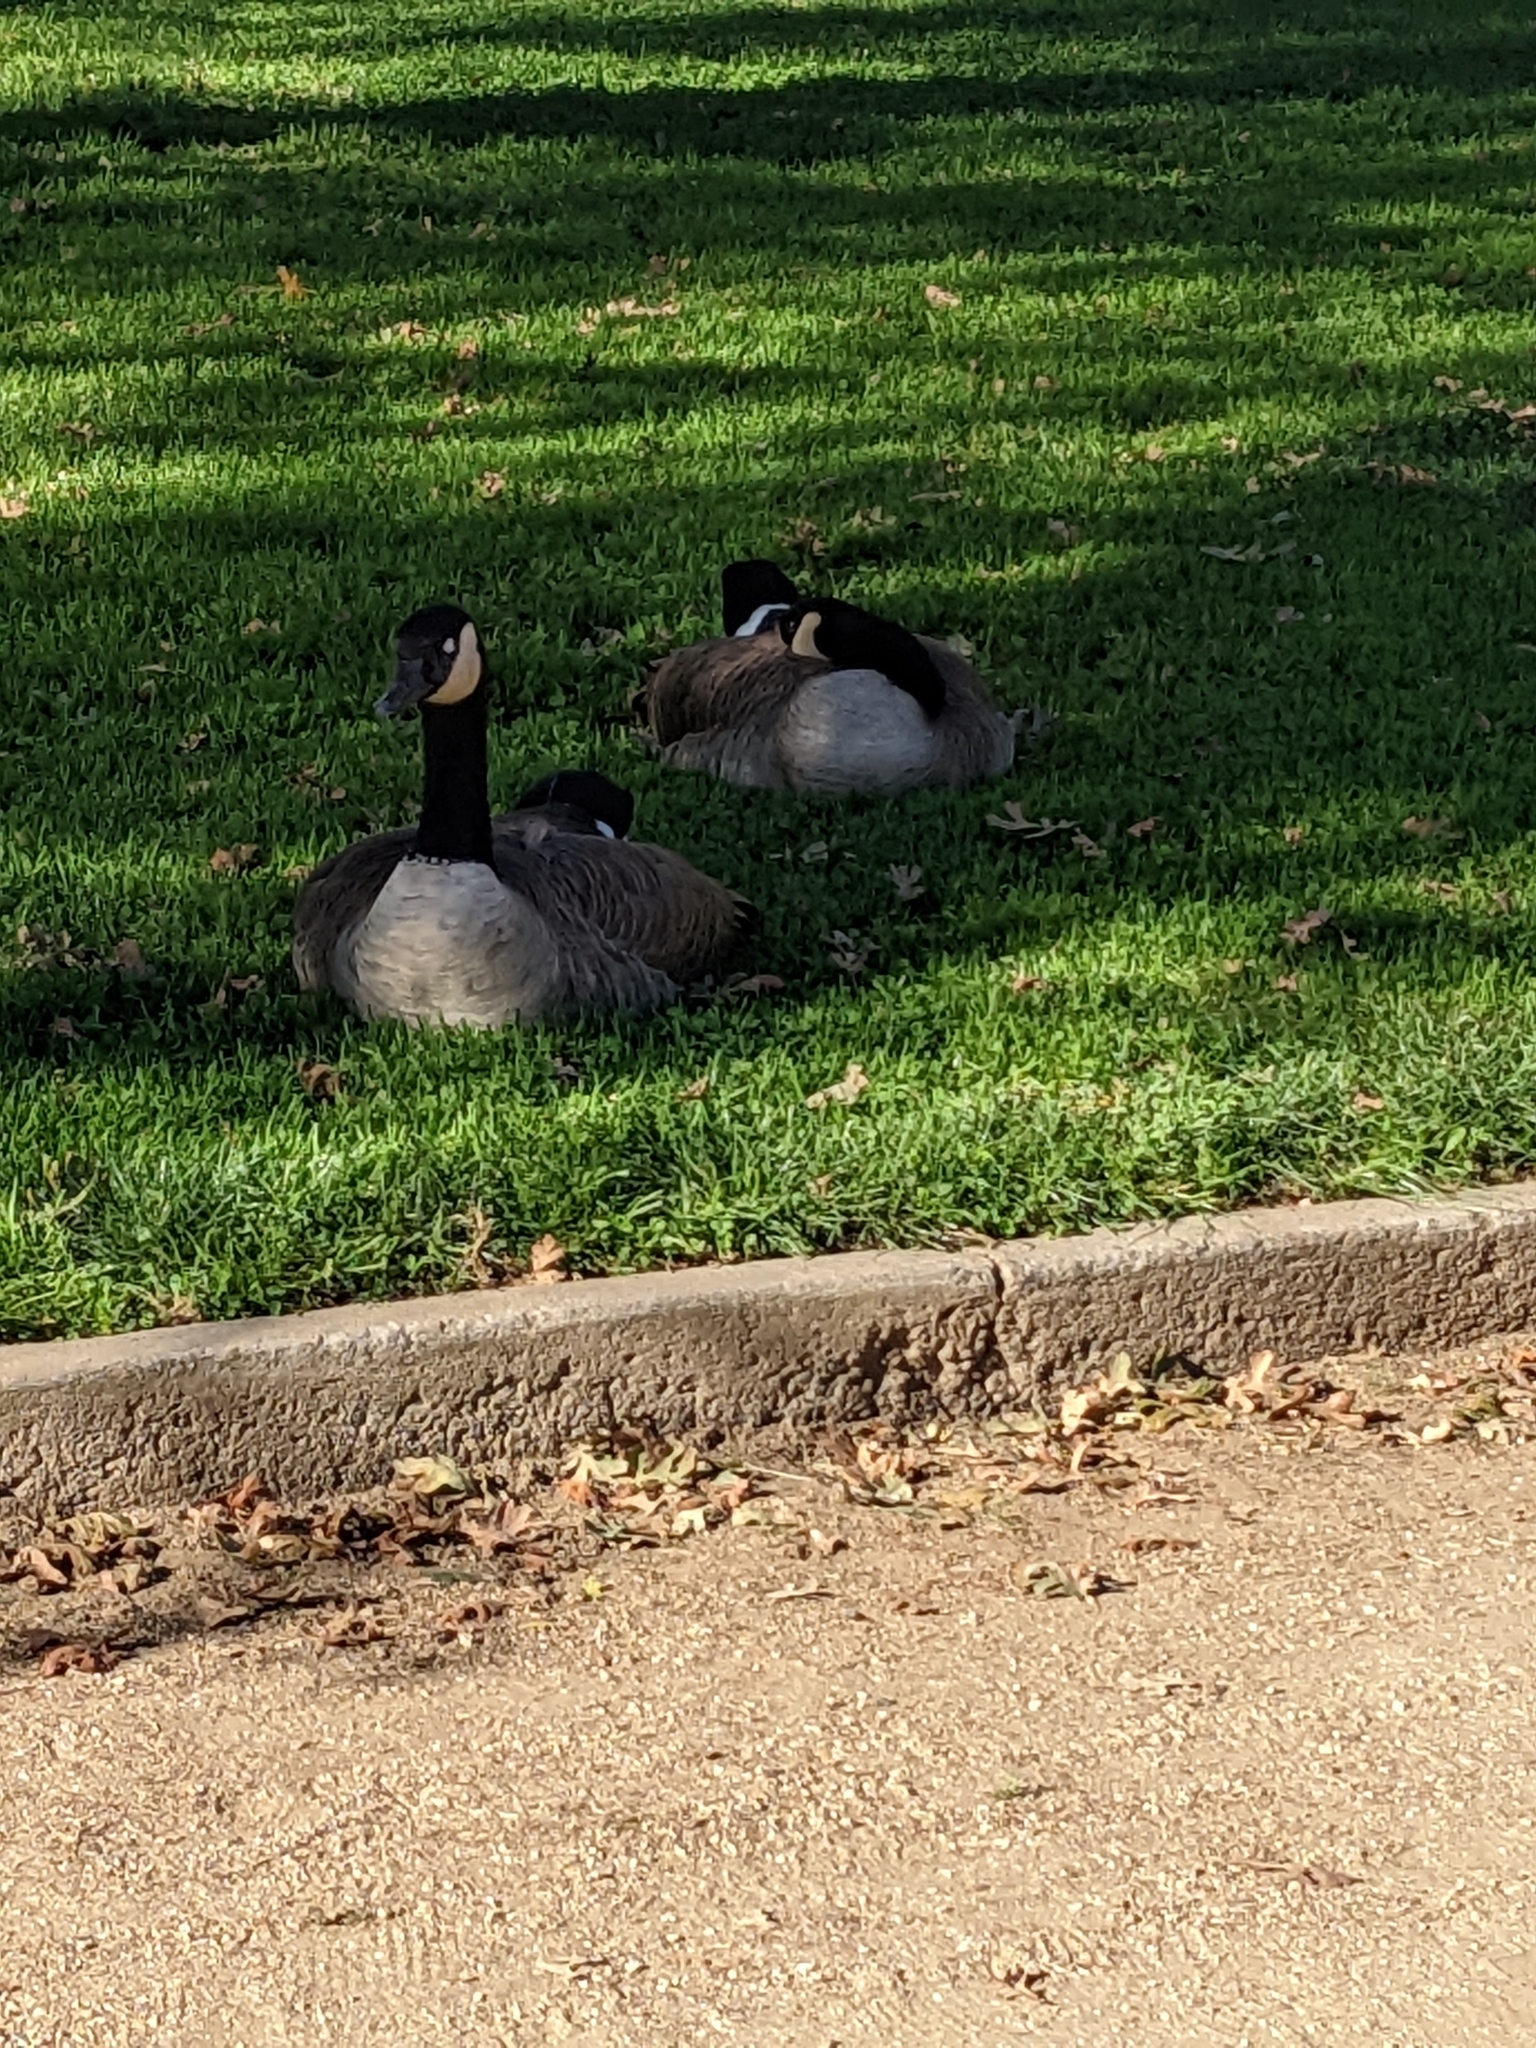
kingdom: Animalia
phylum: Chordata
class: Aves
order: Anseriformes
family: Anatidae
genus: Branta
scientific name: Branta canadensis
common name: Canada goose
